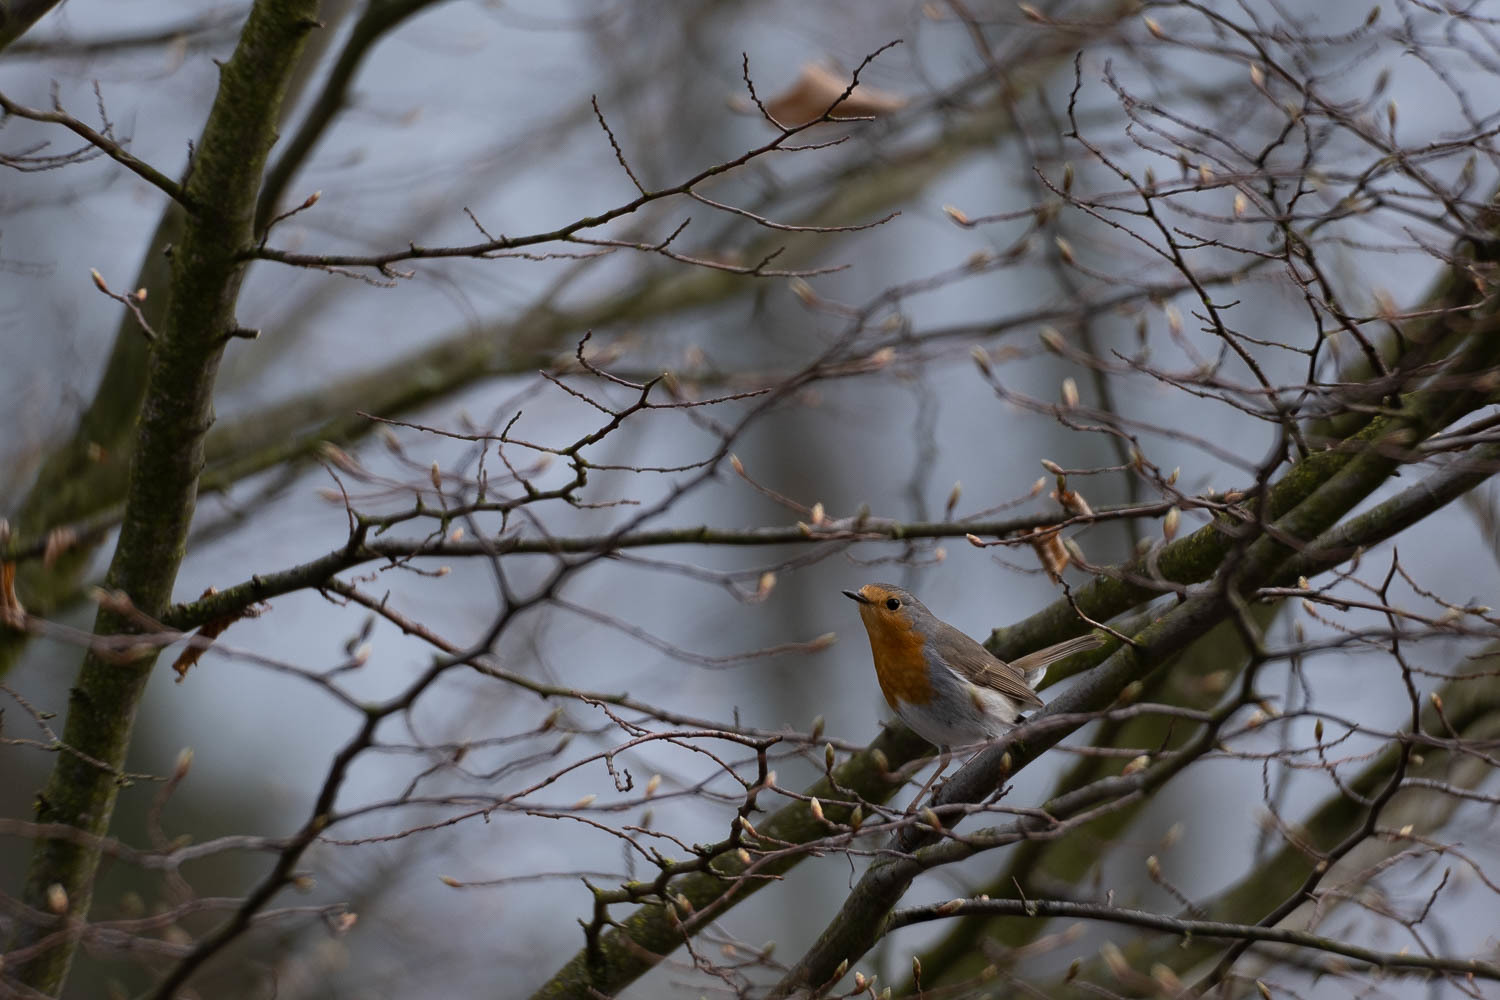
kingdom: Animalia
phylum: Chordata
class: Aves
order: Passeriformes
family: Muscicapidae
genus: Erithacus
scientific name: Erithacus rubecula
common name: European robin
